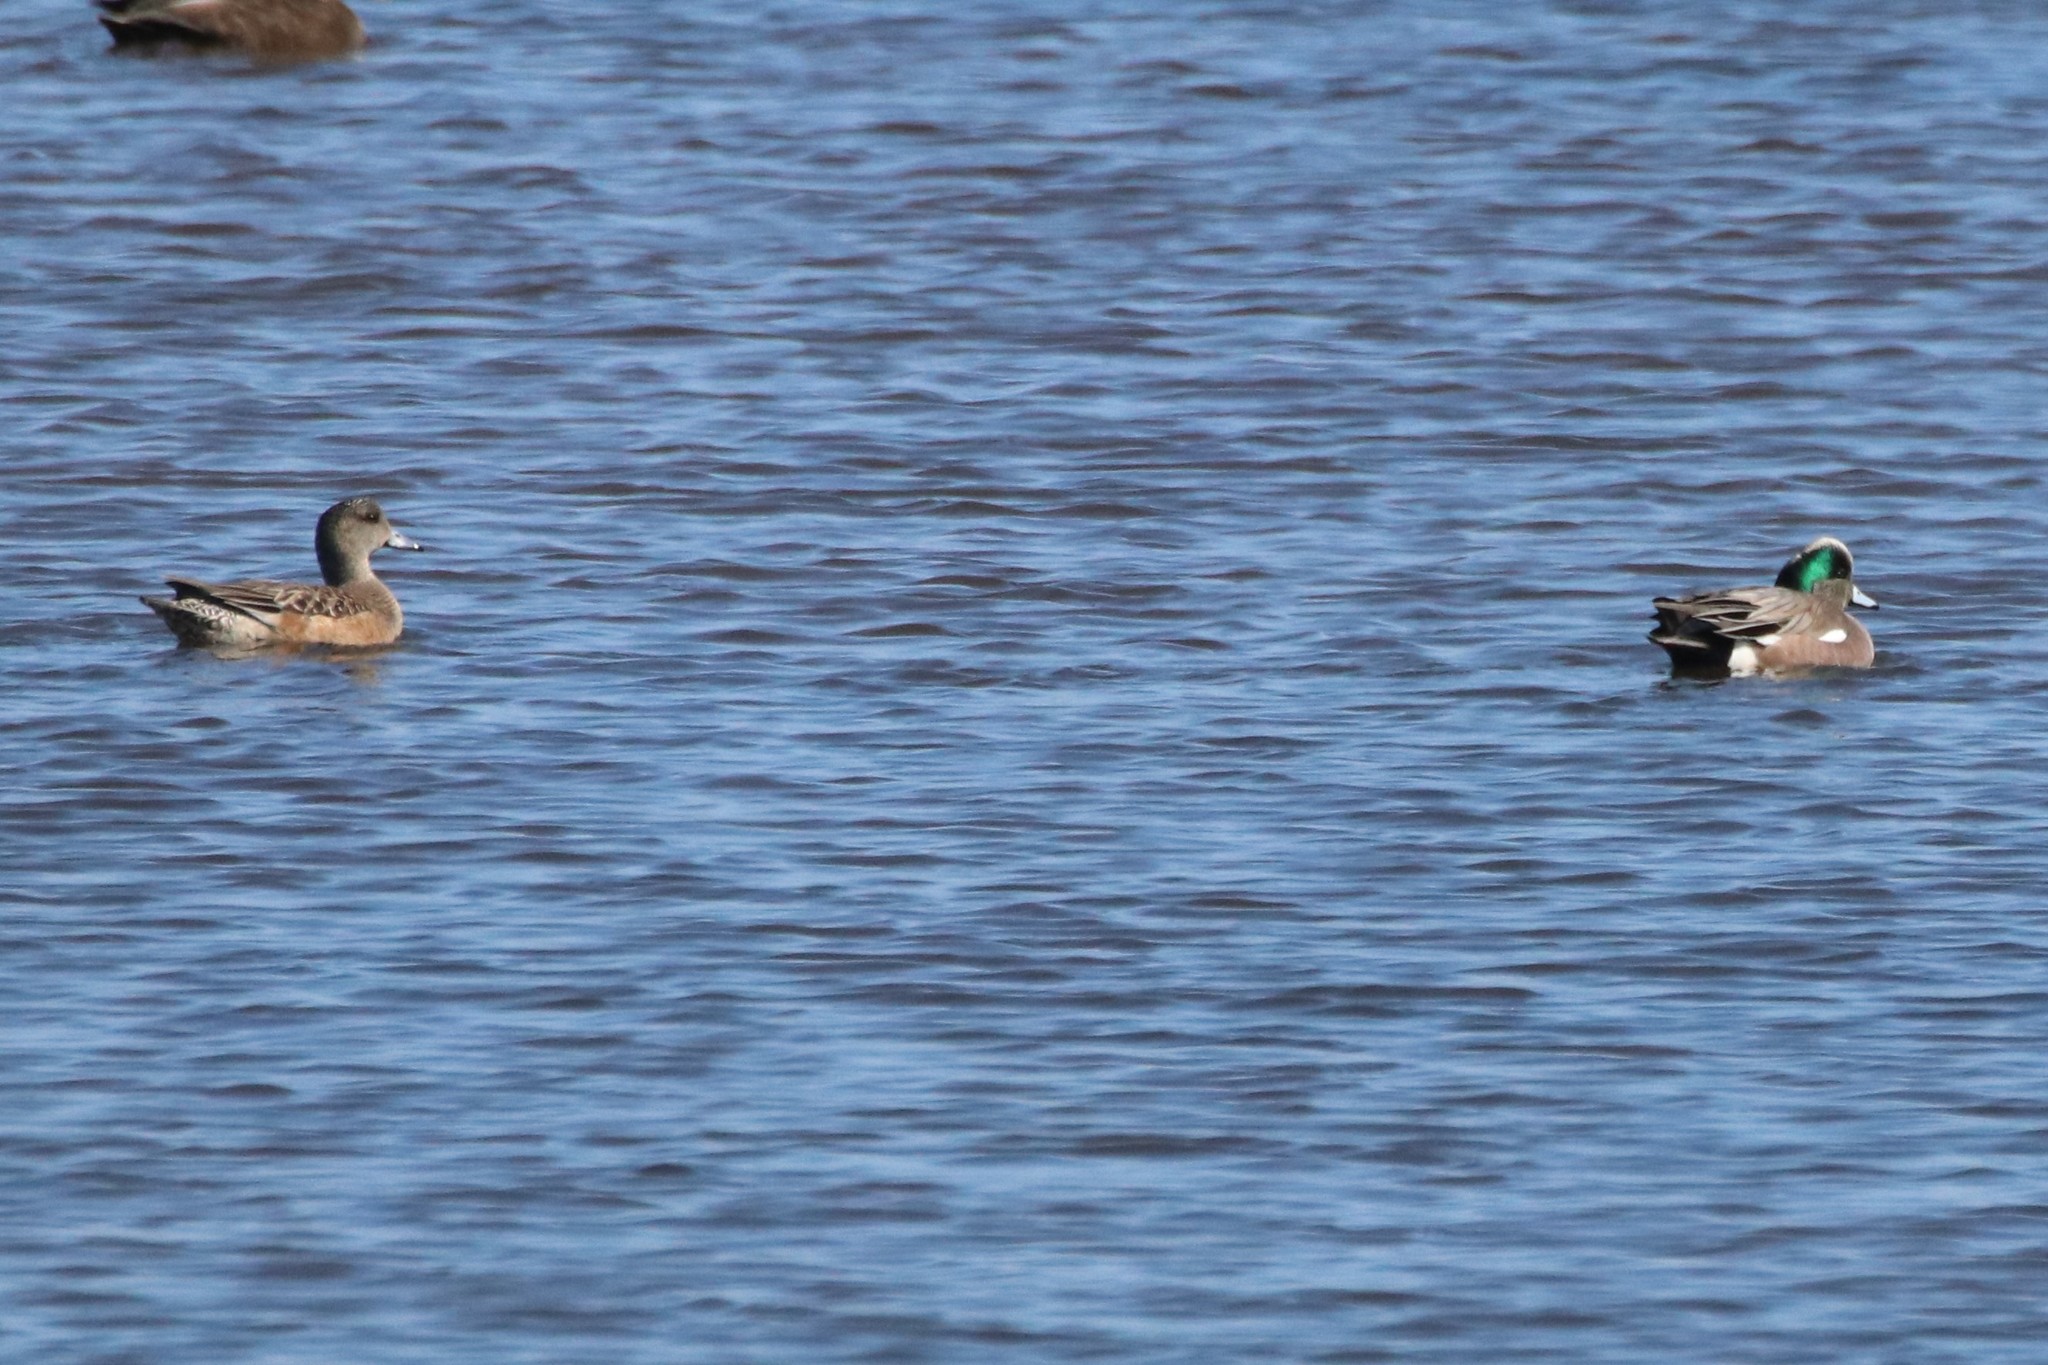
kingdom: Animalia
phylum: Chordata
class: Aves
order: Anseriformes
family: Anatidae
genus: Mareca
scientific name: Mareca americana
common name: American wigeon
